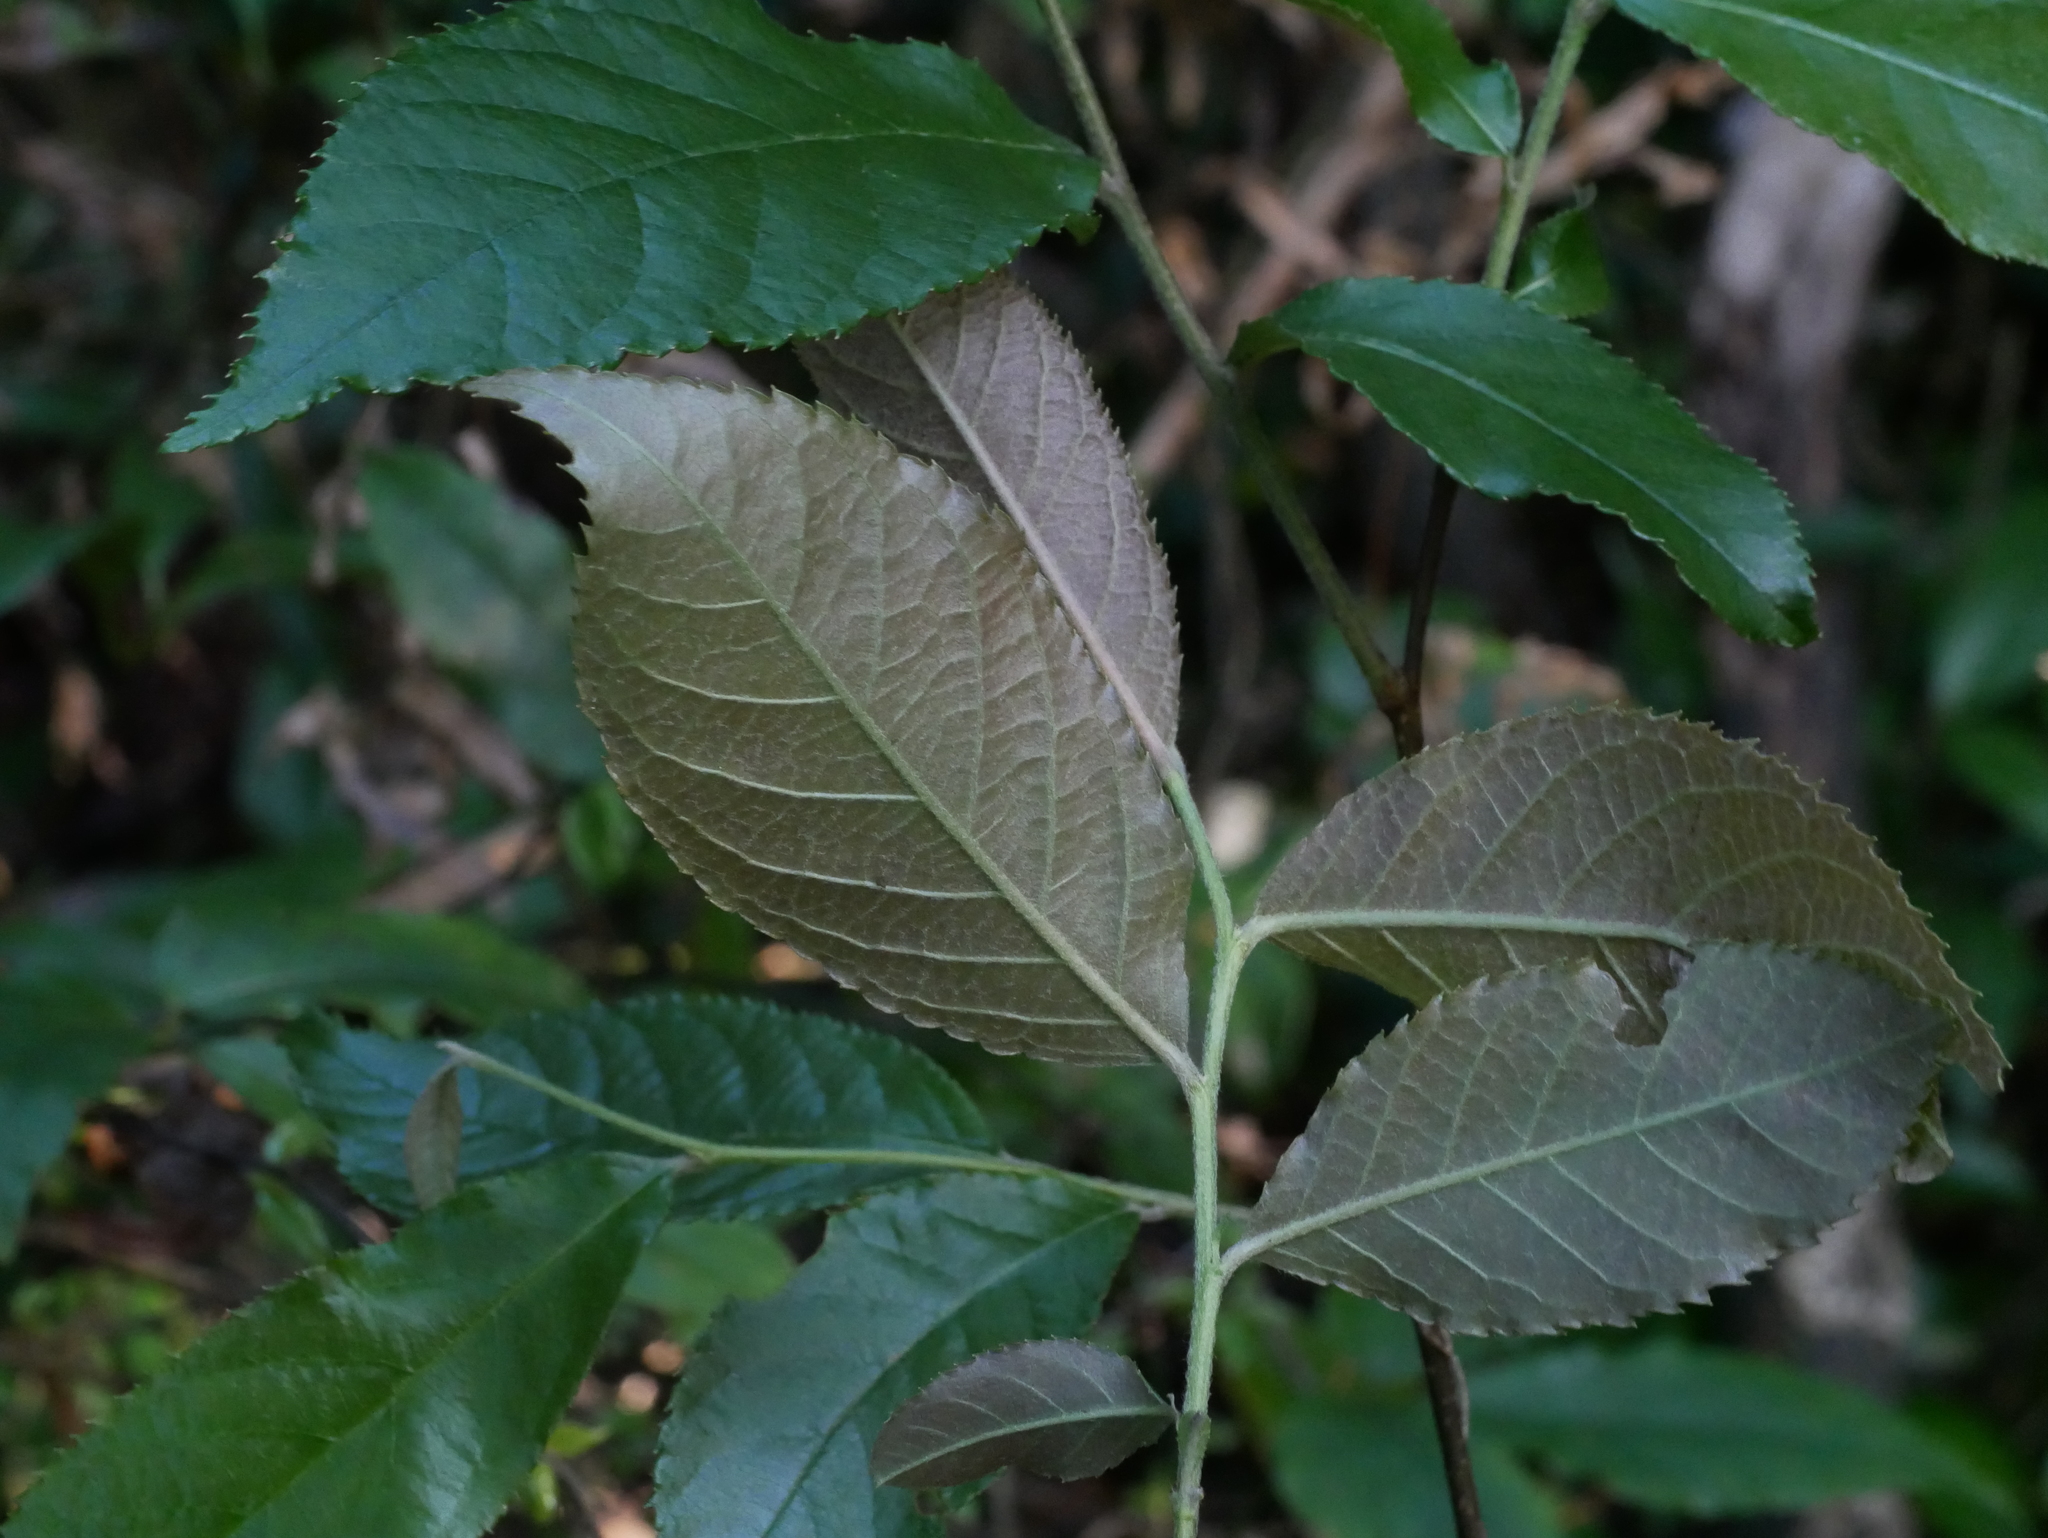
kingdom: Plantae
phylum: Tracheophyta
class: Magnoliopsida
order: Rosales
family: Rosaceae
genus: Pourthiaea
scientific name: Pourthiaea beauverdiana
